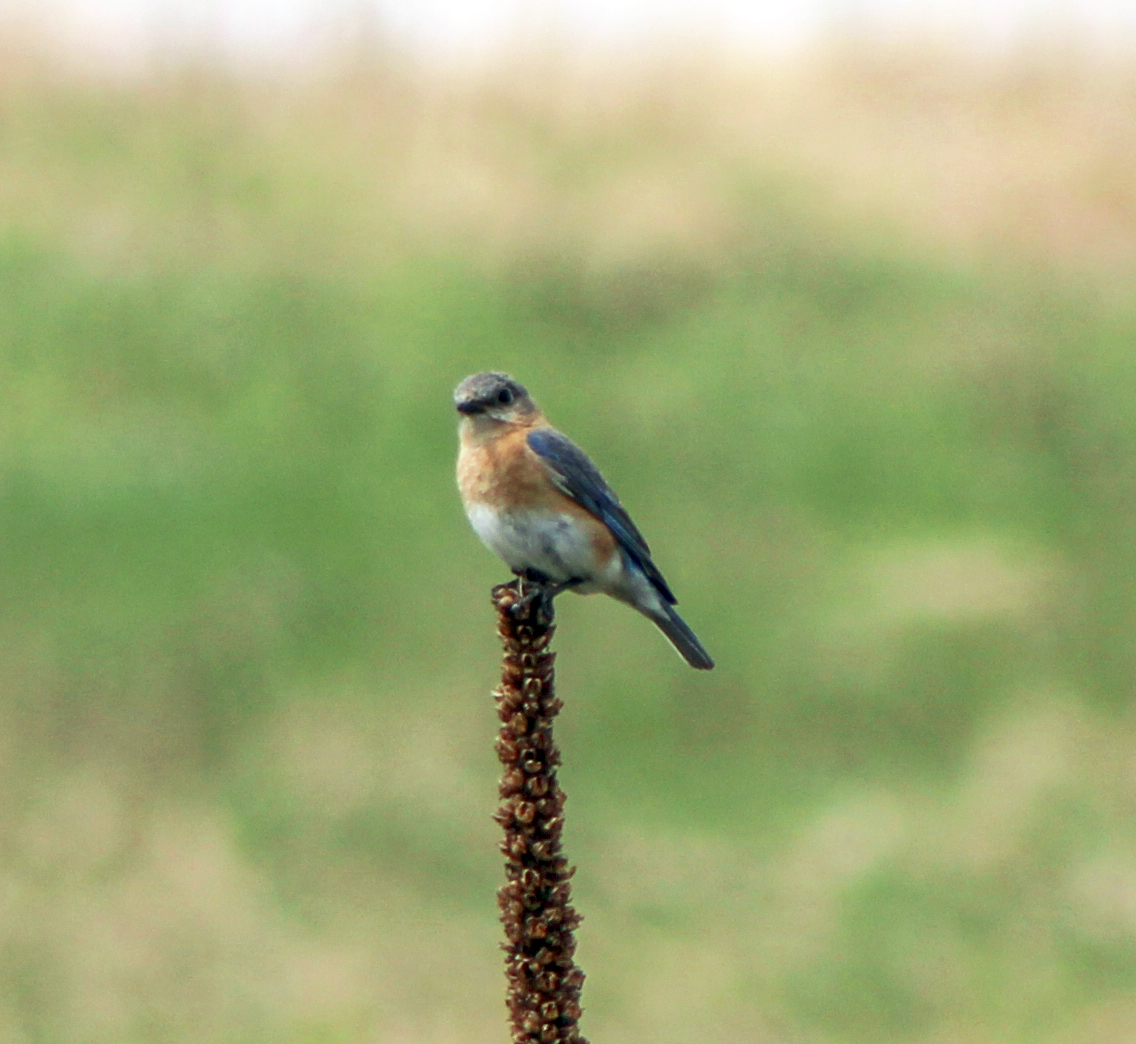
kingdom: Animalia
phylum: Chordata
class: Aves
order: Passeriformes
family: Turdidae
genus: Sialia
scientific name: Sialia sialis
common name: Eastern bluebird
